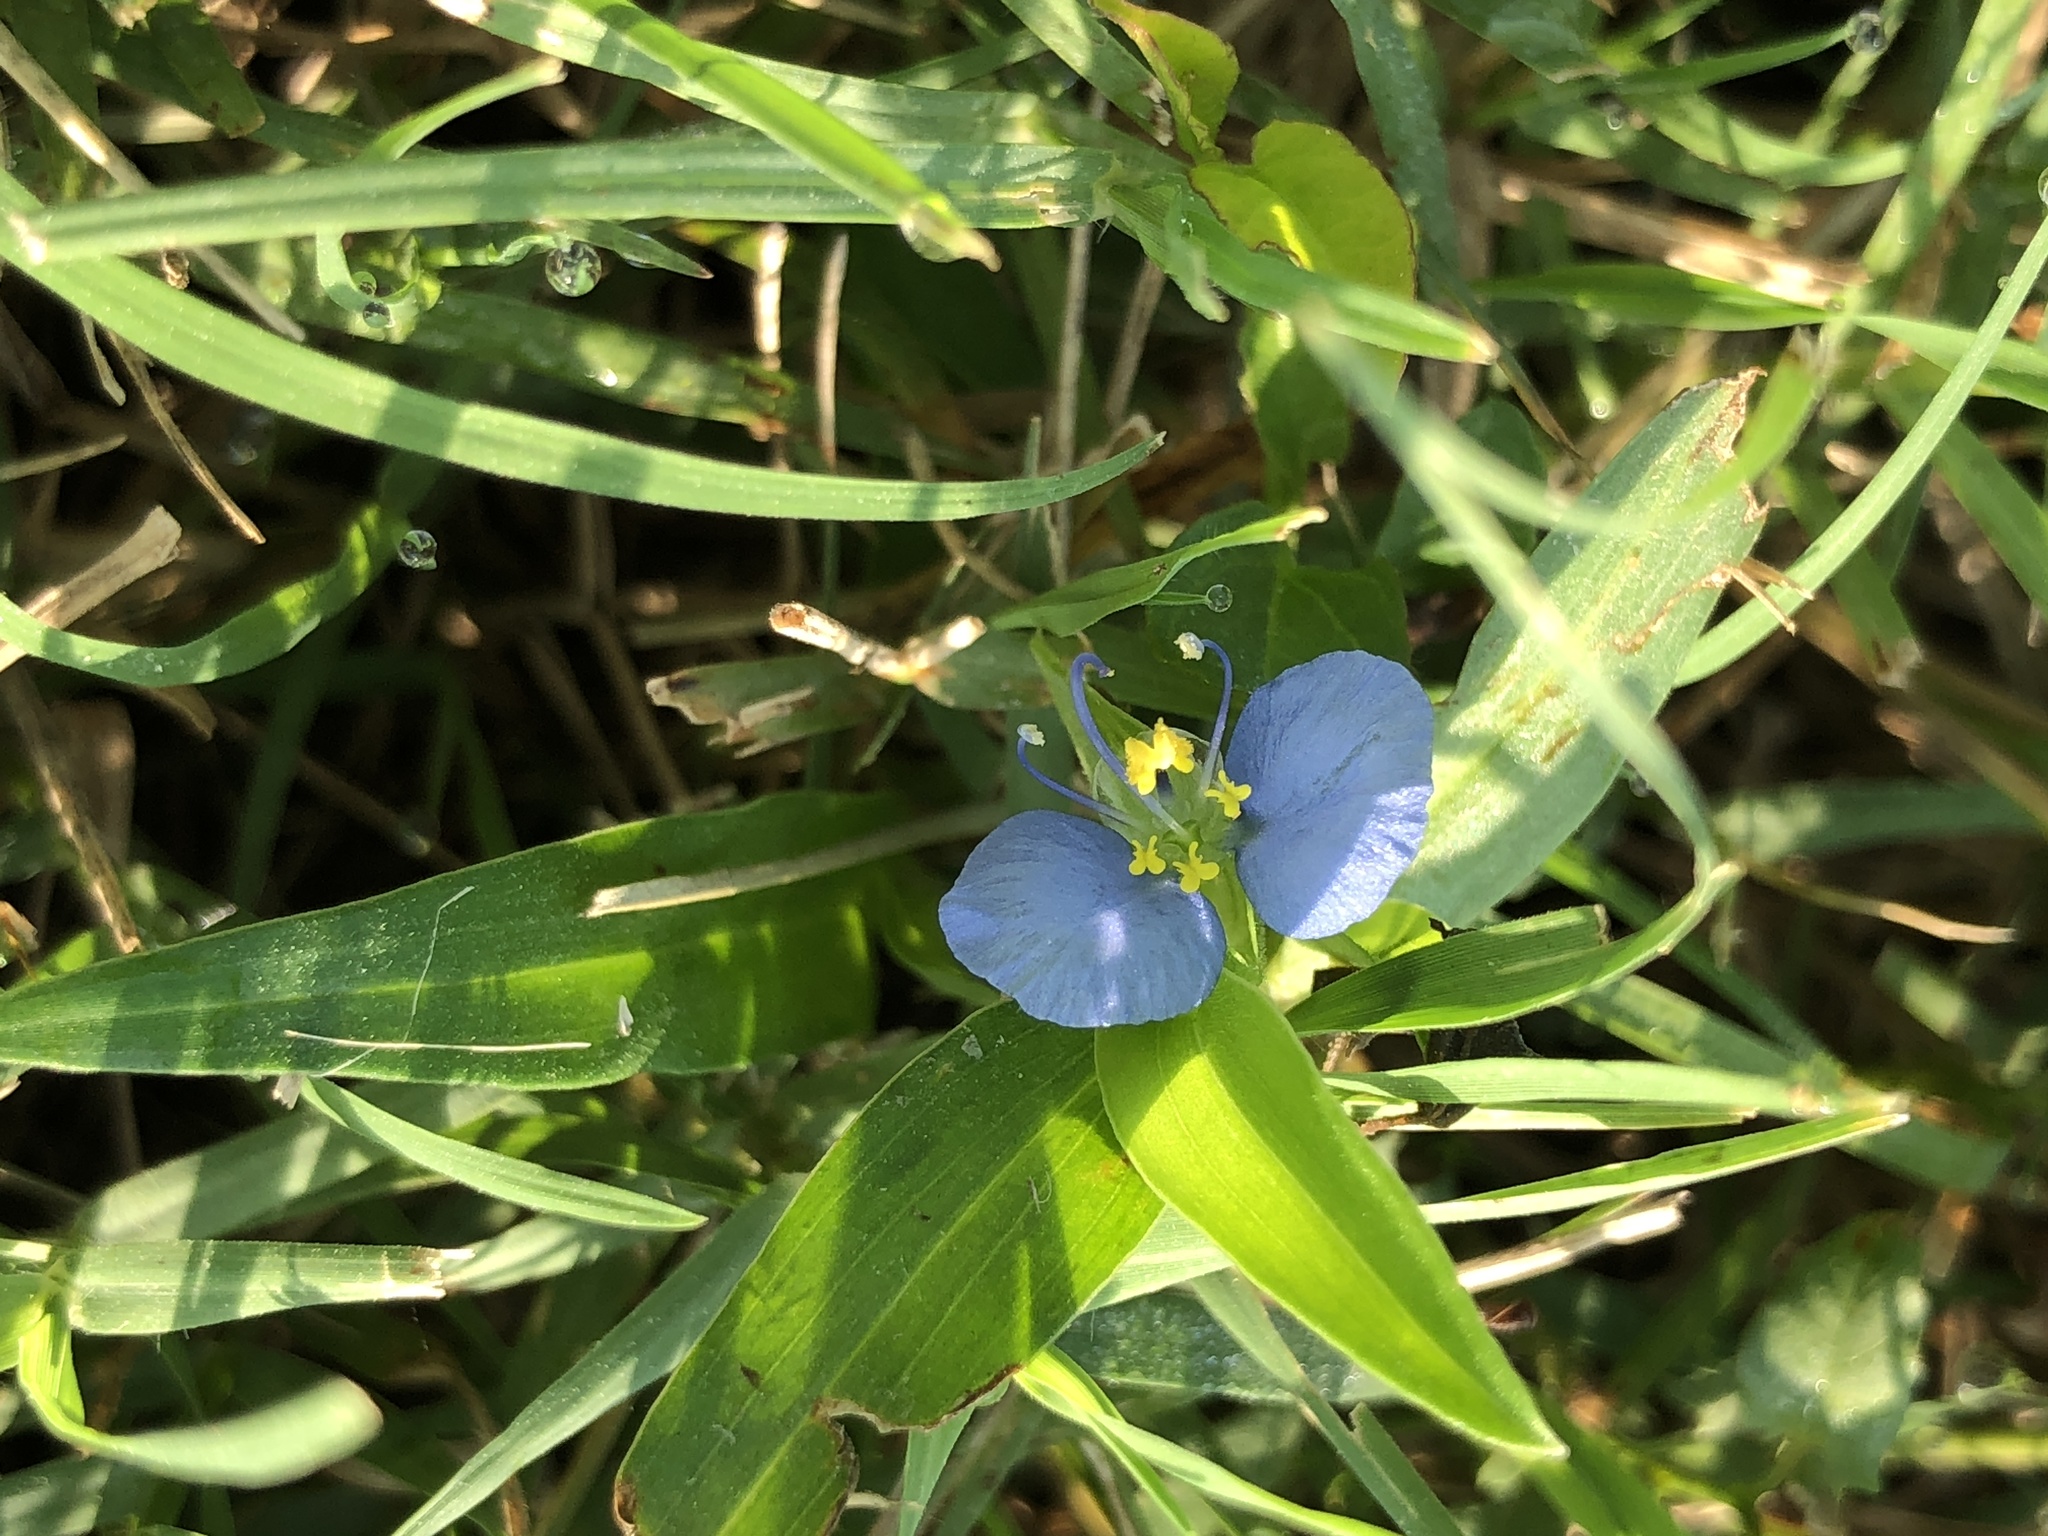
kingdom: Plantae
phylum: Tracheophyta
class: Liliopsida
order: Commelinales
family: Commelinaceae
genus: Commelina
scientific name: Commelina erecta
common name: Blousel blommetjie
